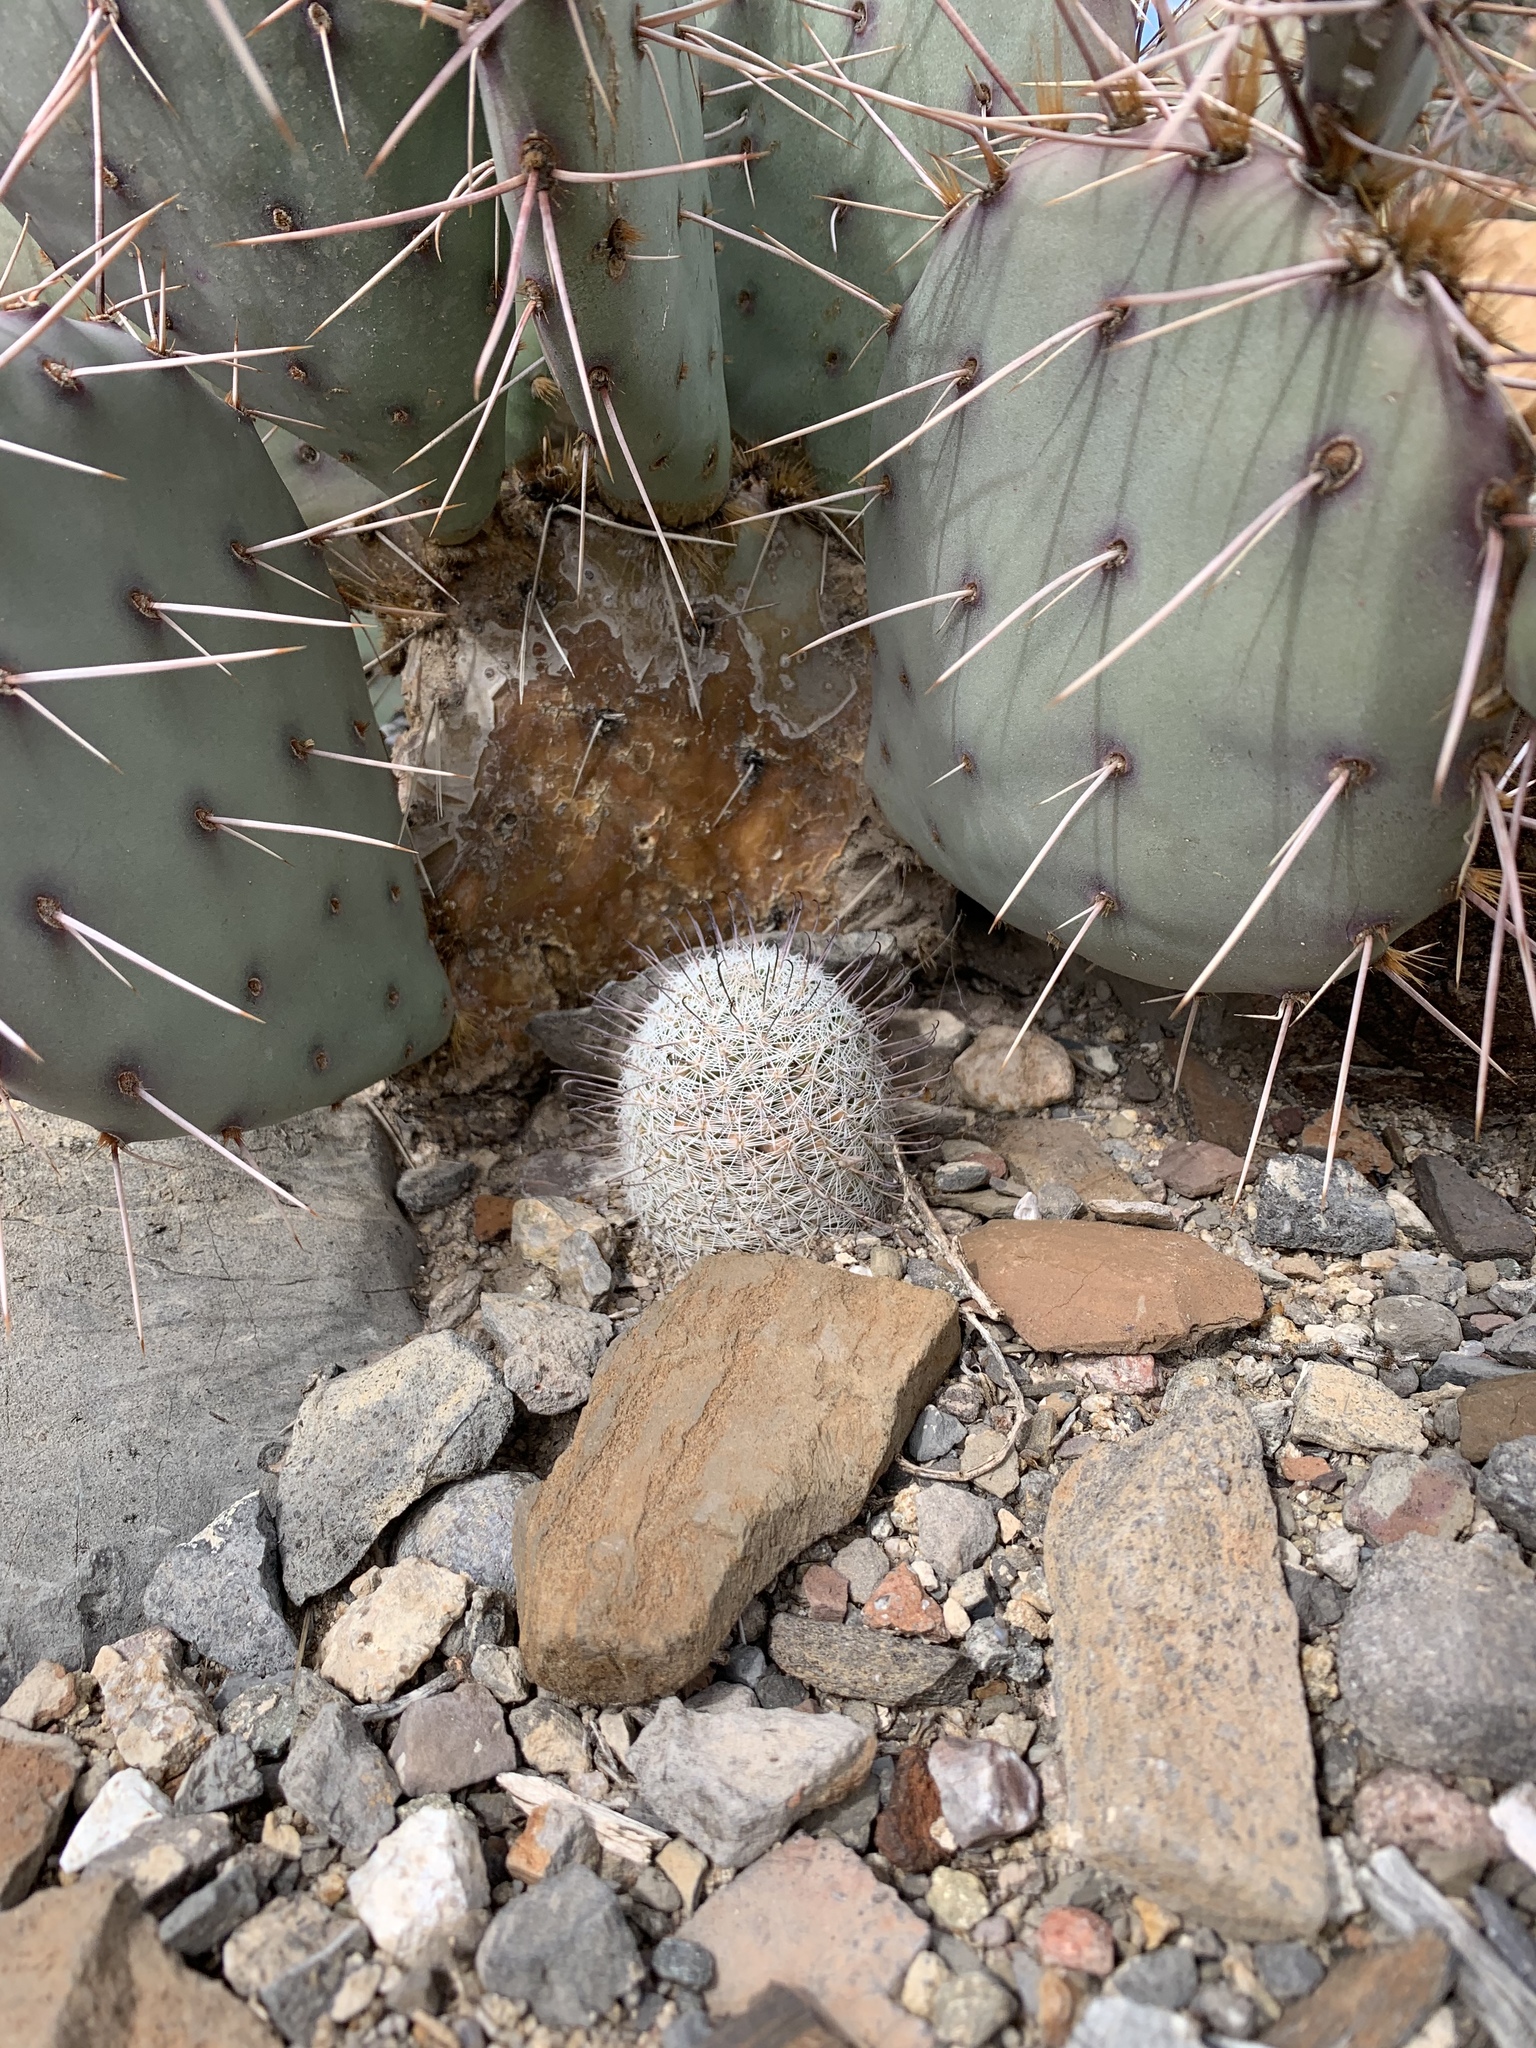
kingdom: Plantae
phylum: Tracheophyta
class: Magnoliopsida
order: Caryophyllales
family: Cactaceae
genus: Cochemiea
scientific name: Cochemiea grahamii
